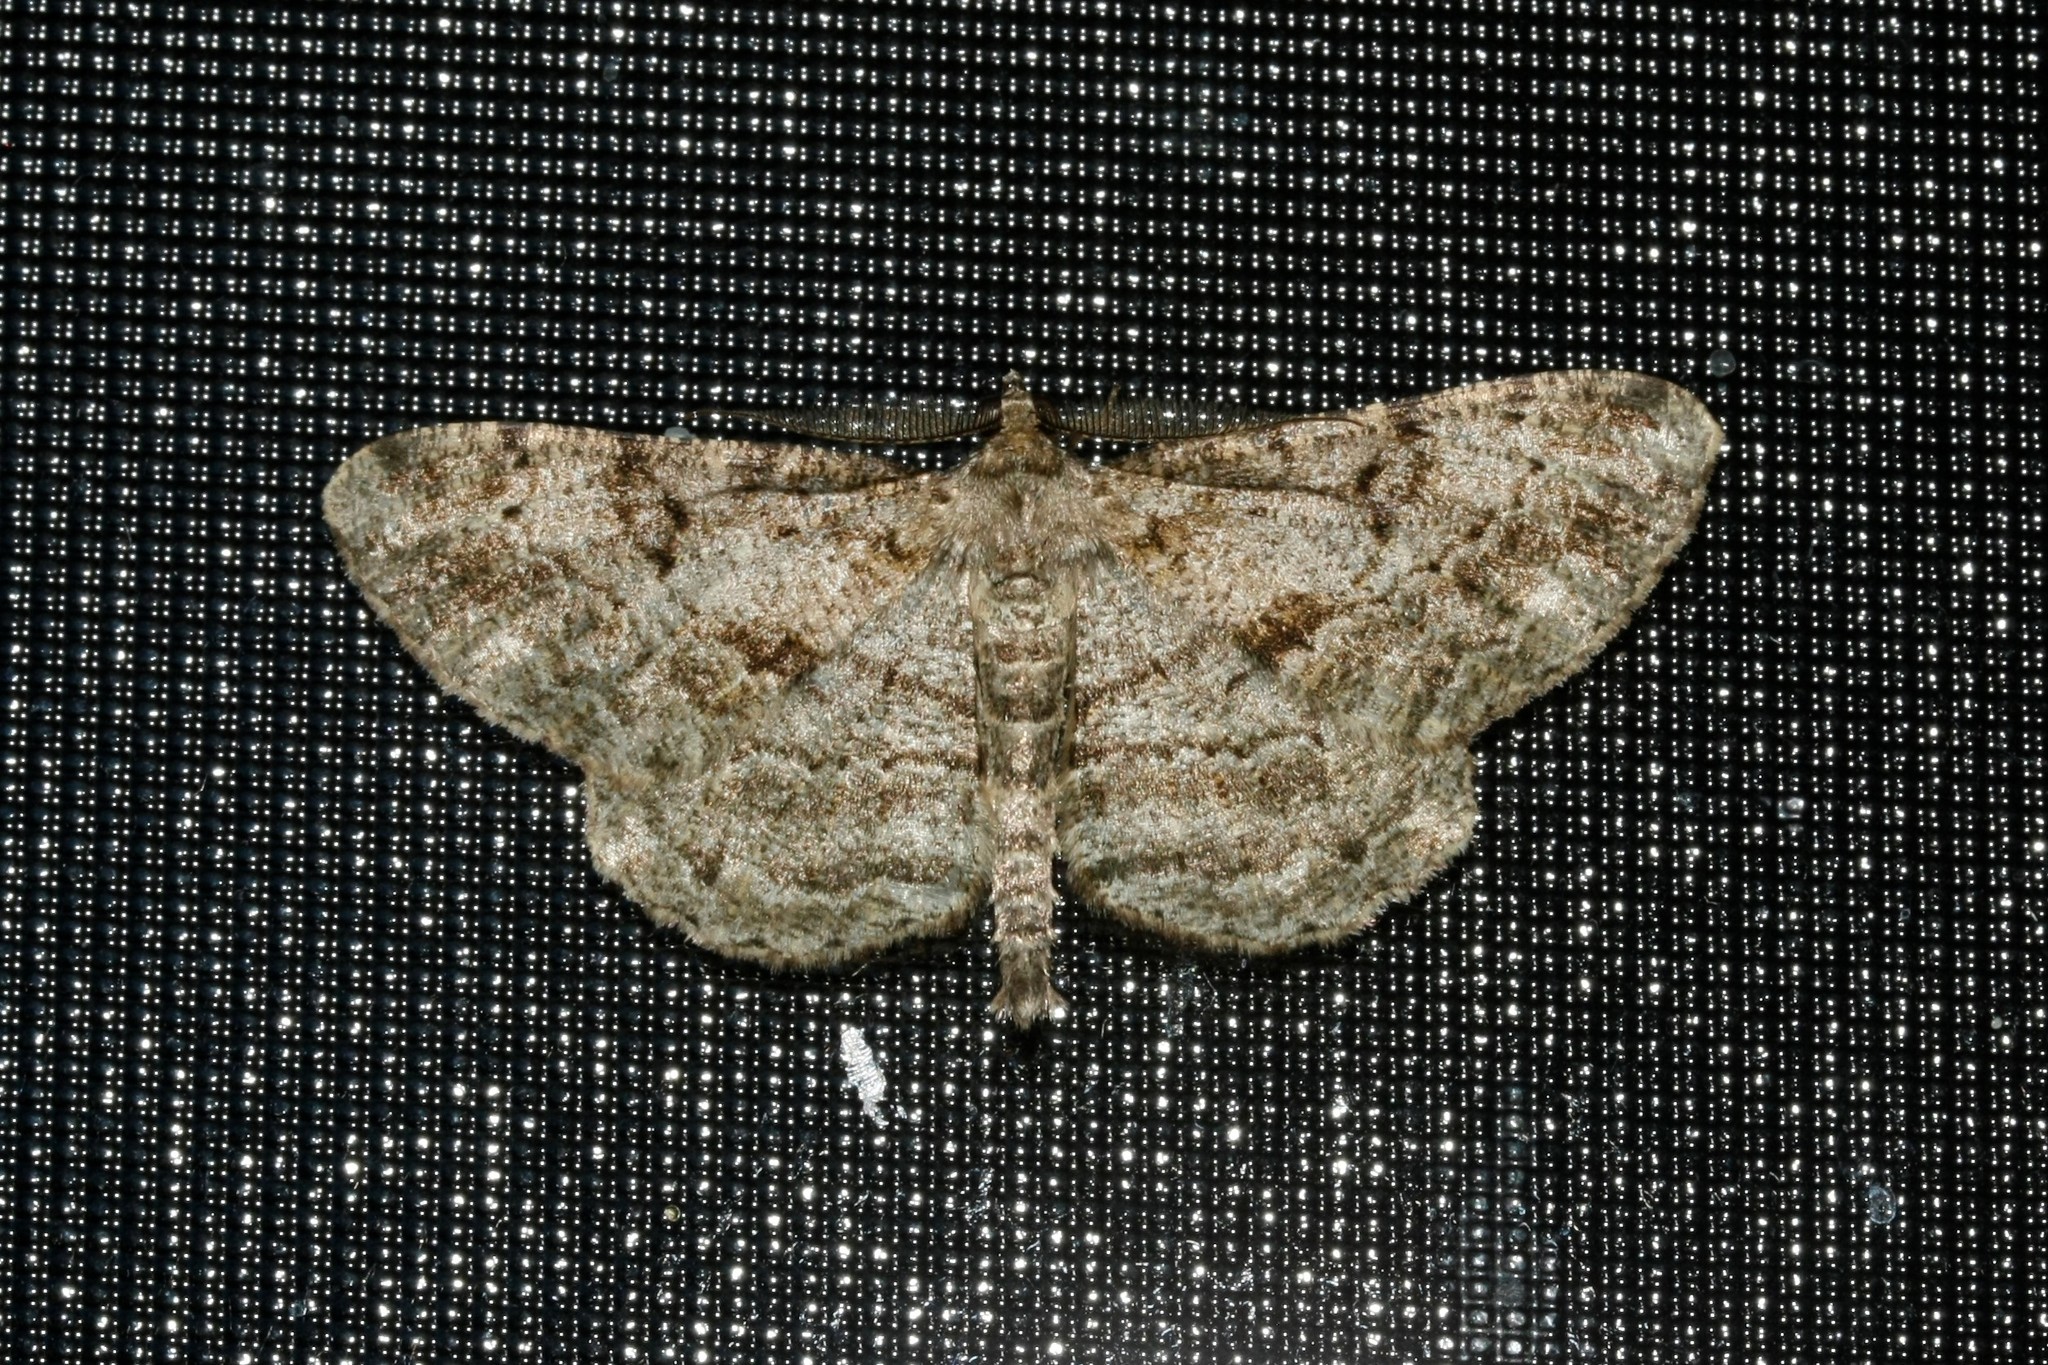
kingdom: Animalia
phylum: Arthropoda
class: Insecta
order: Lepidoptera
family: Geometridae
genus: Peribatodes
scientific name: Peribatodes rhomboidaria
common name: Willow beauty
